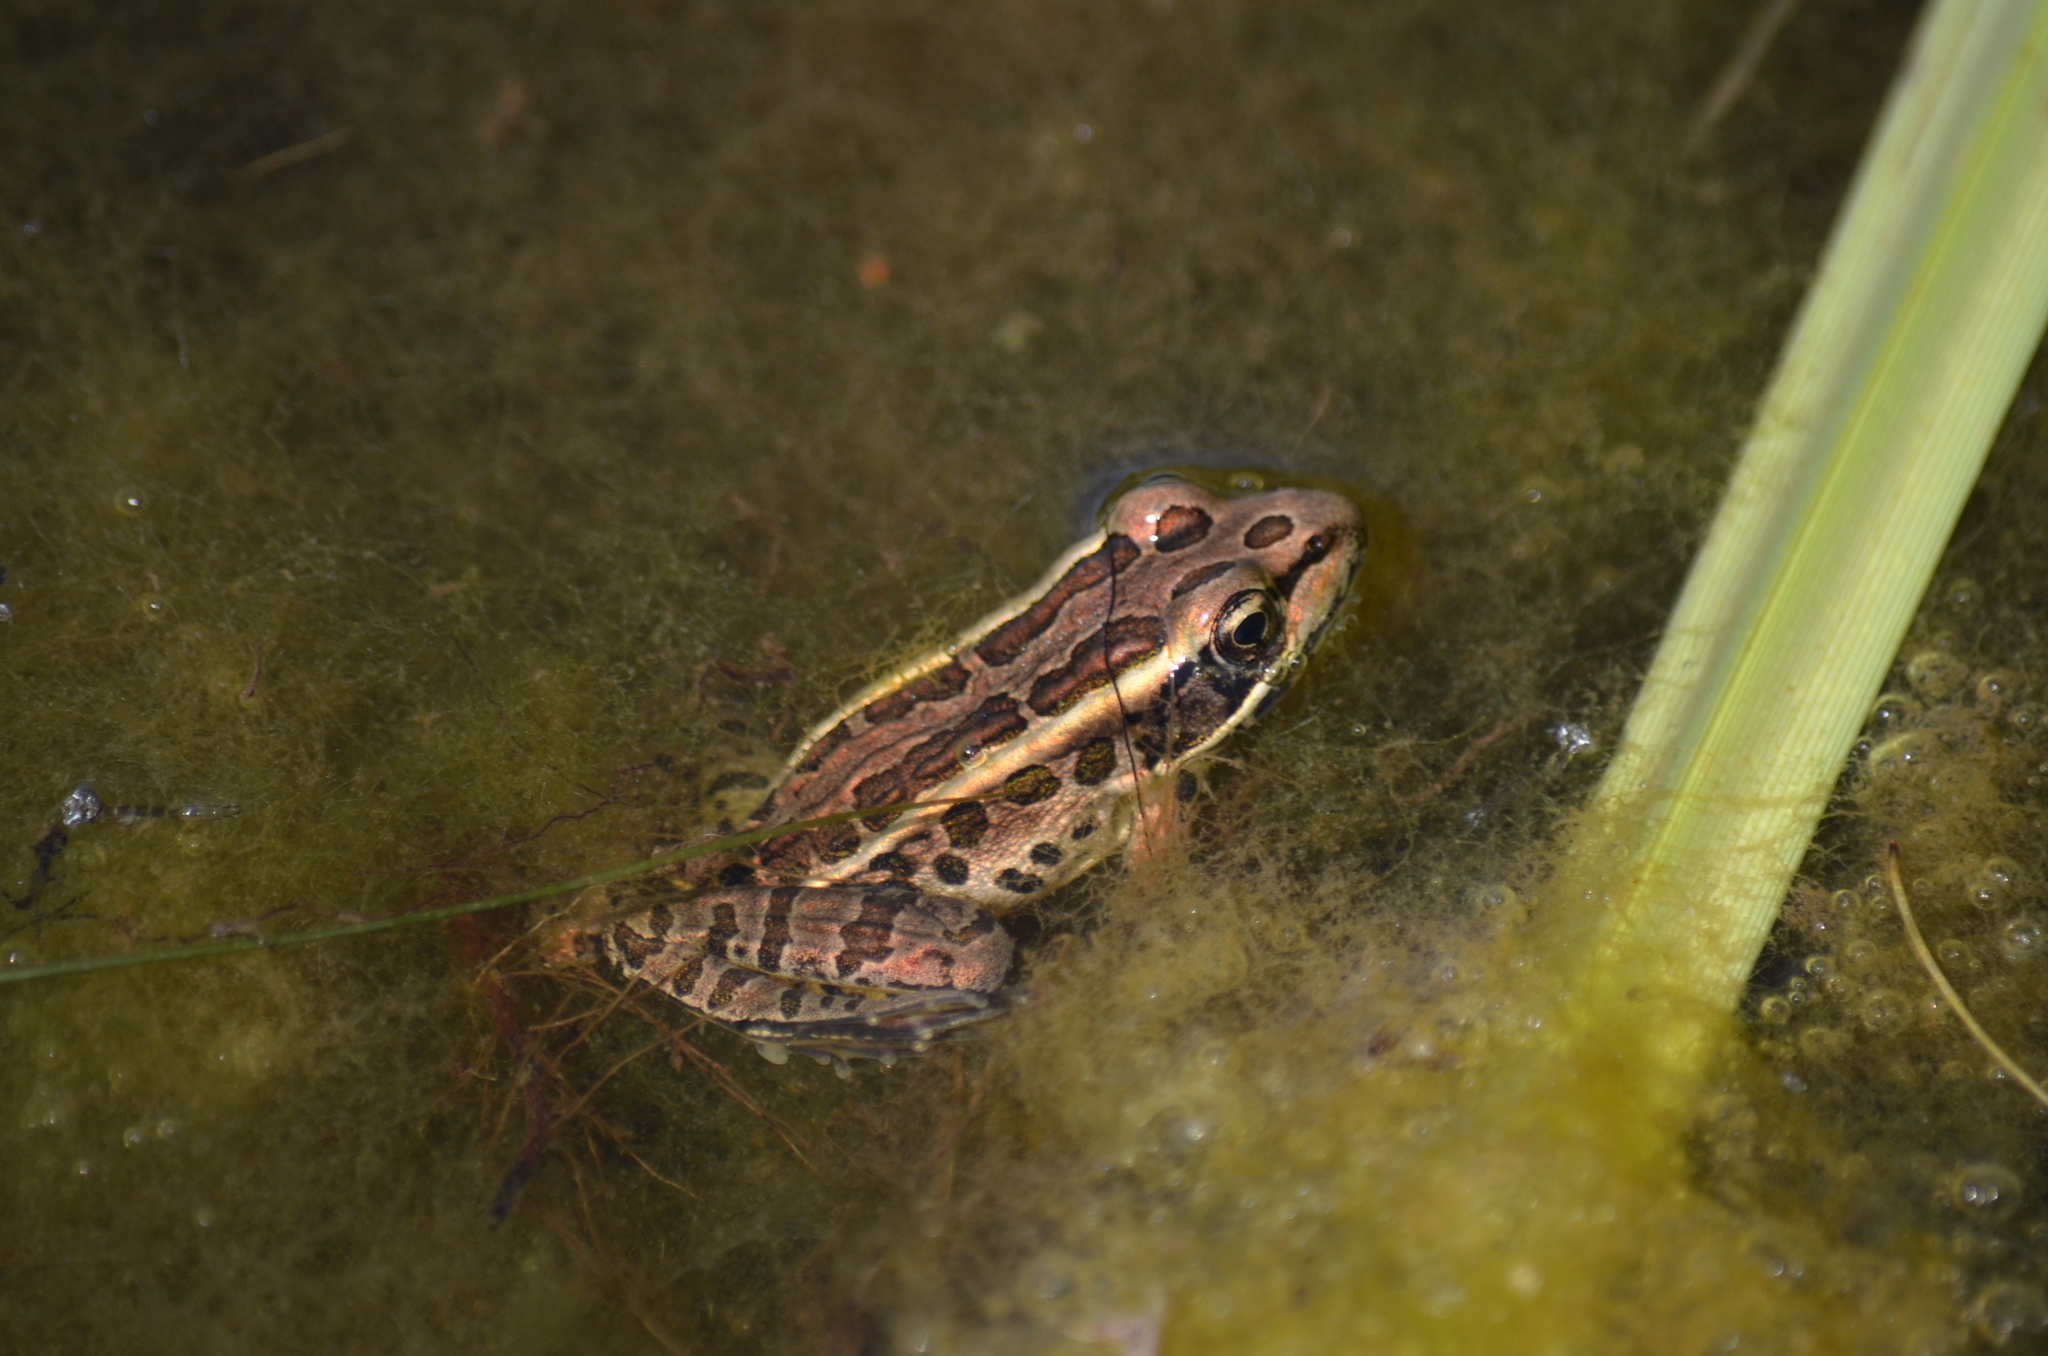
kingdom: Animalia
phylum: Chordata
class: Amphibia
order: Anura
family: Ranidae
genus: Lithobates
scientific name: Lithobates palustris
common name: Pickerel frog
